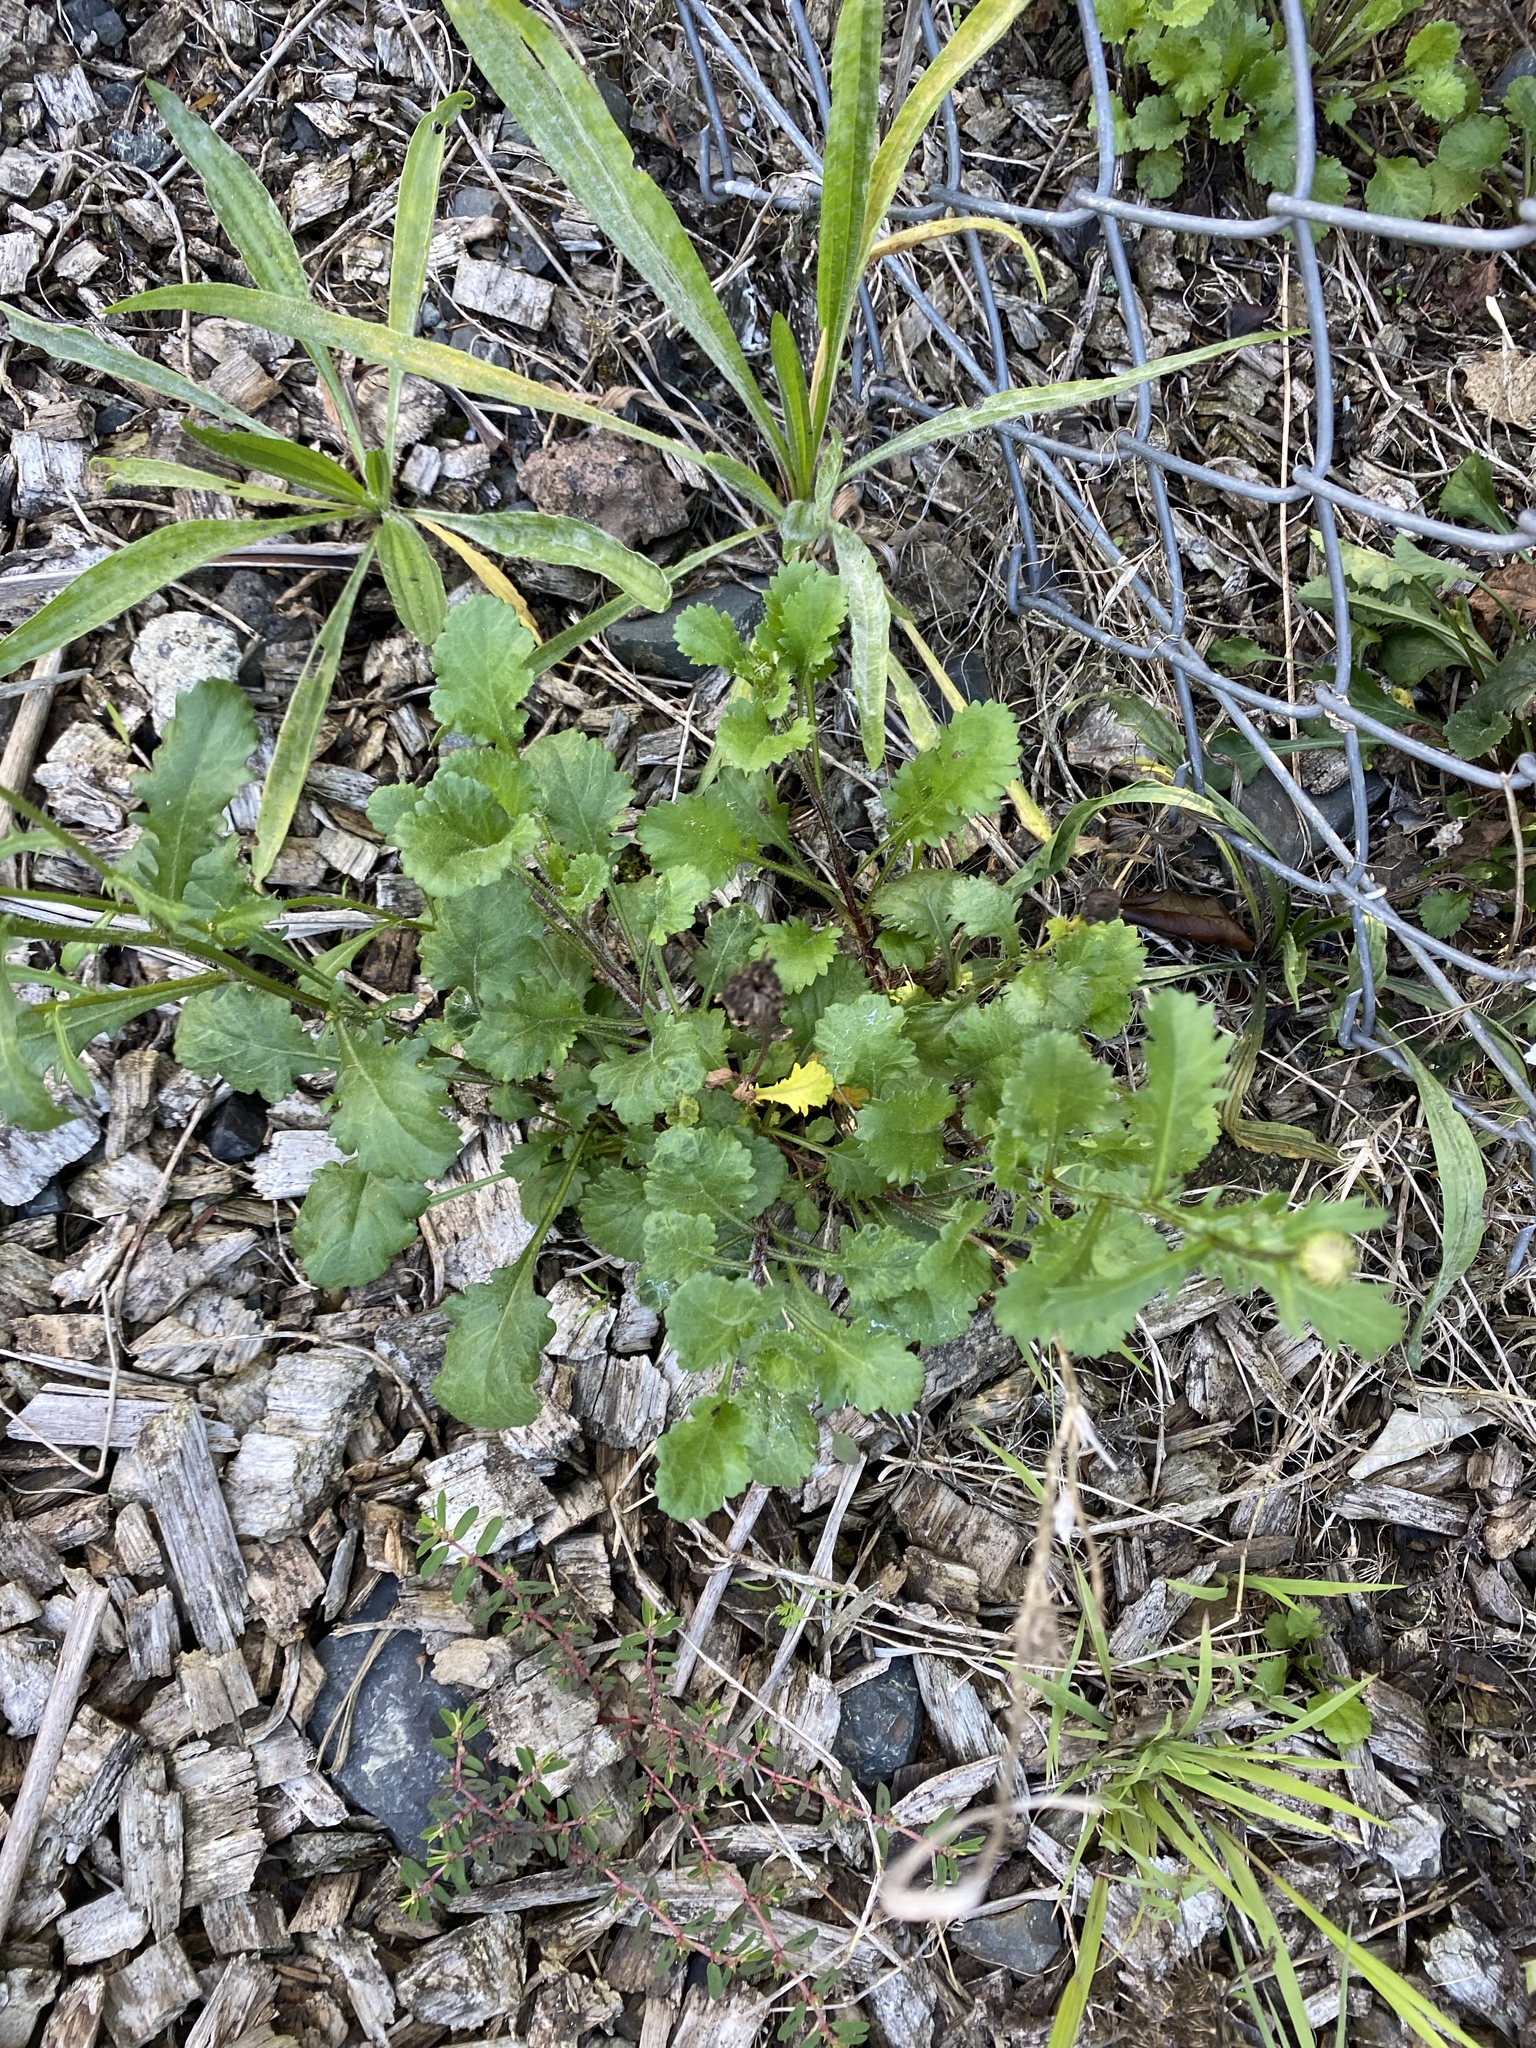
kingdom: Plantae
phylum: Tracheophyta
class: Magnoliopsida
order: Asterales
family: Asteraceae
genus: Leucanthemum
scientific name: Leucanthemum vulgare
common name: Oxeye daisy
